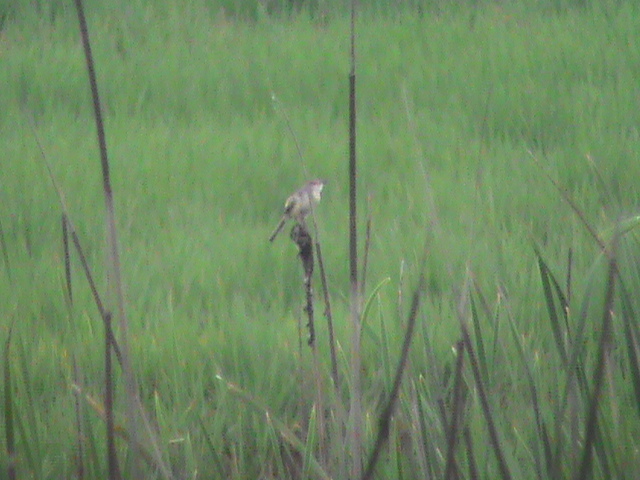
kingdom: Animalia
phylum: Chordata
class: Aves
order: Passeriformes
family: Cisticolidae
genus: Prinia
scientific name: Prinia inornata
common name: Plain prinia
